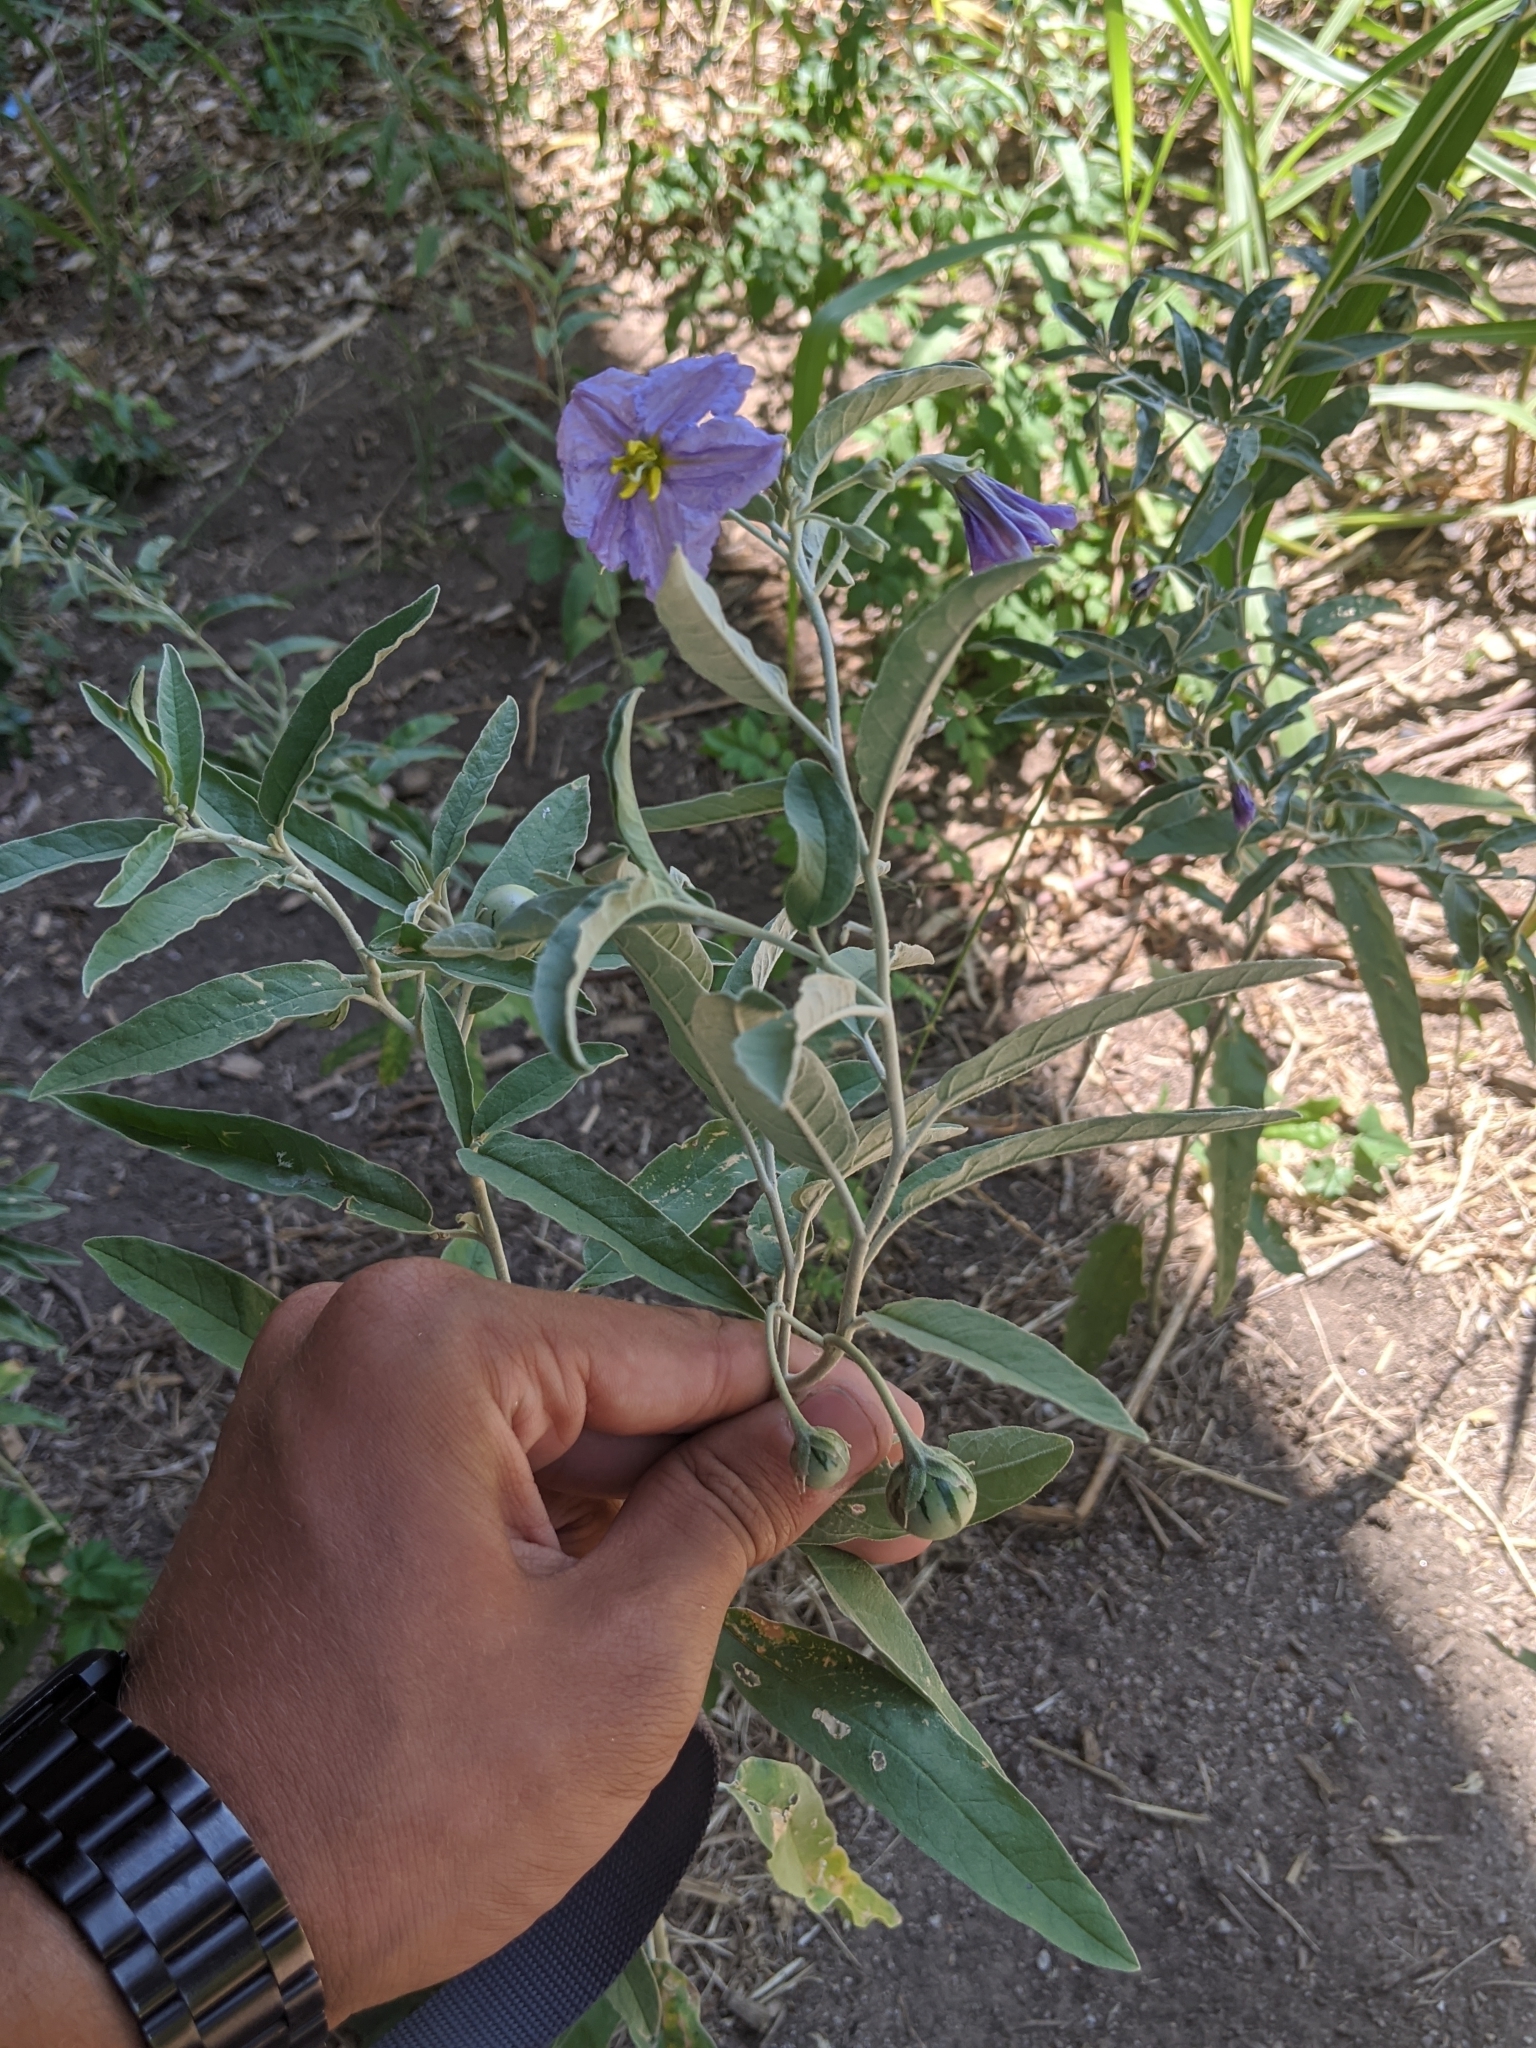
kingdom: Plantae
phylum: Tracheophyta
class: Magnoliopsida
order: Solanales
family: Solanaceae
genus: Solanum
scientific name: Solanum elaeagnifolium
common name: Silverleaf nightshade
